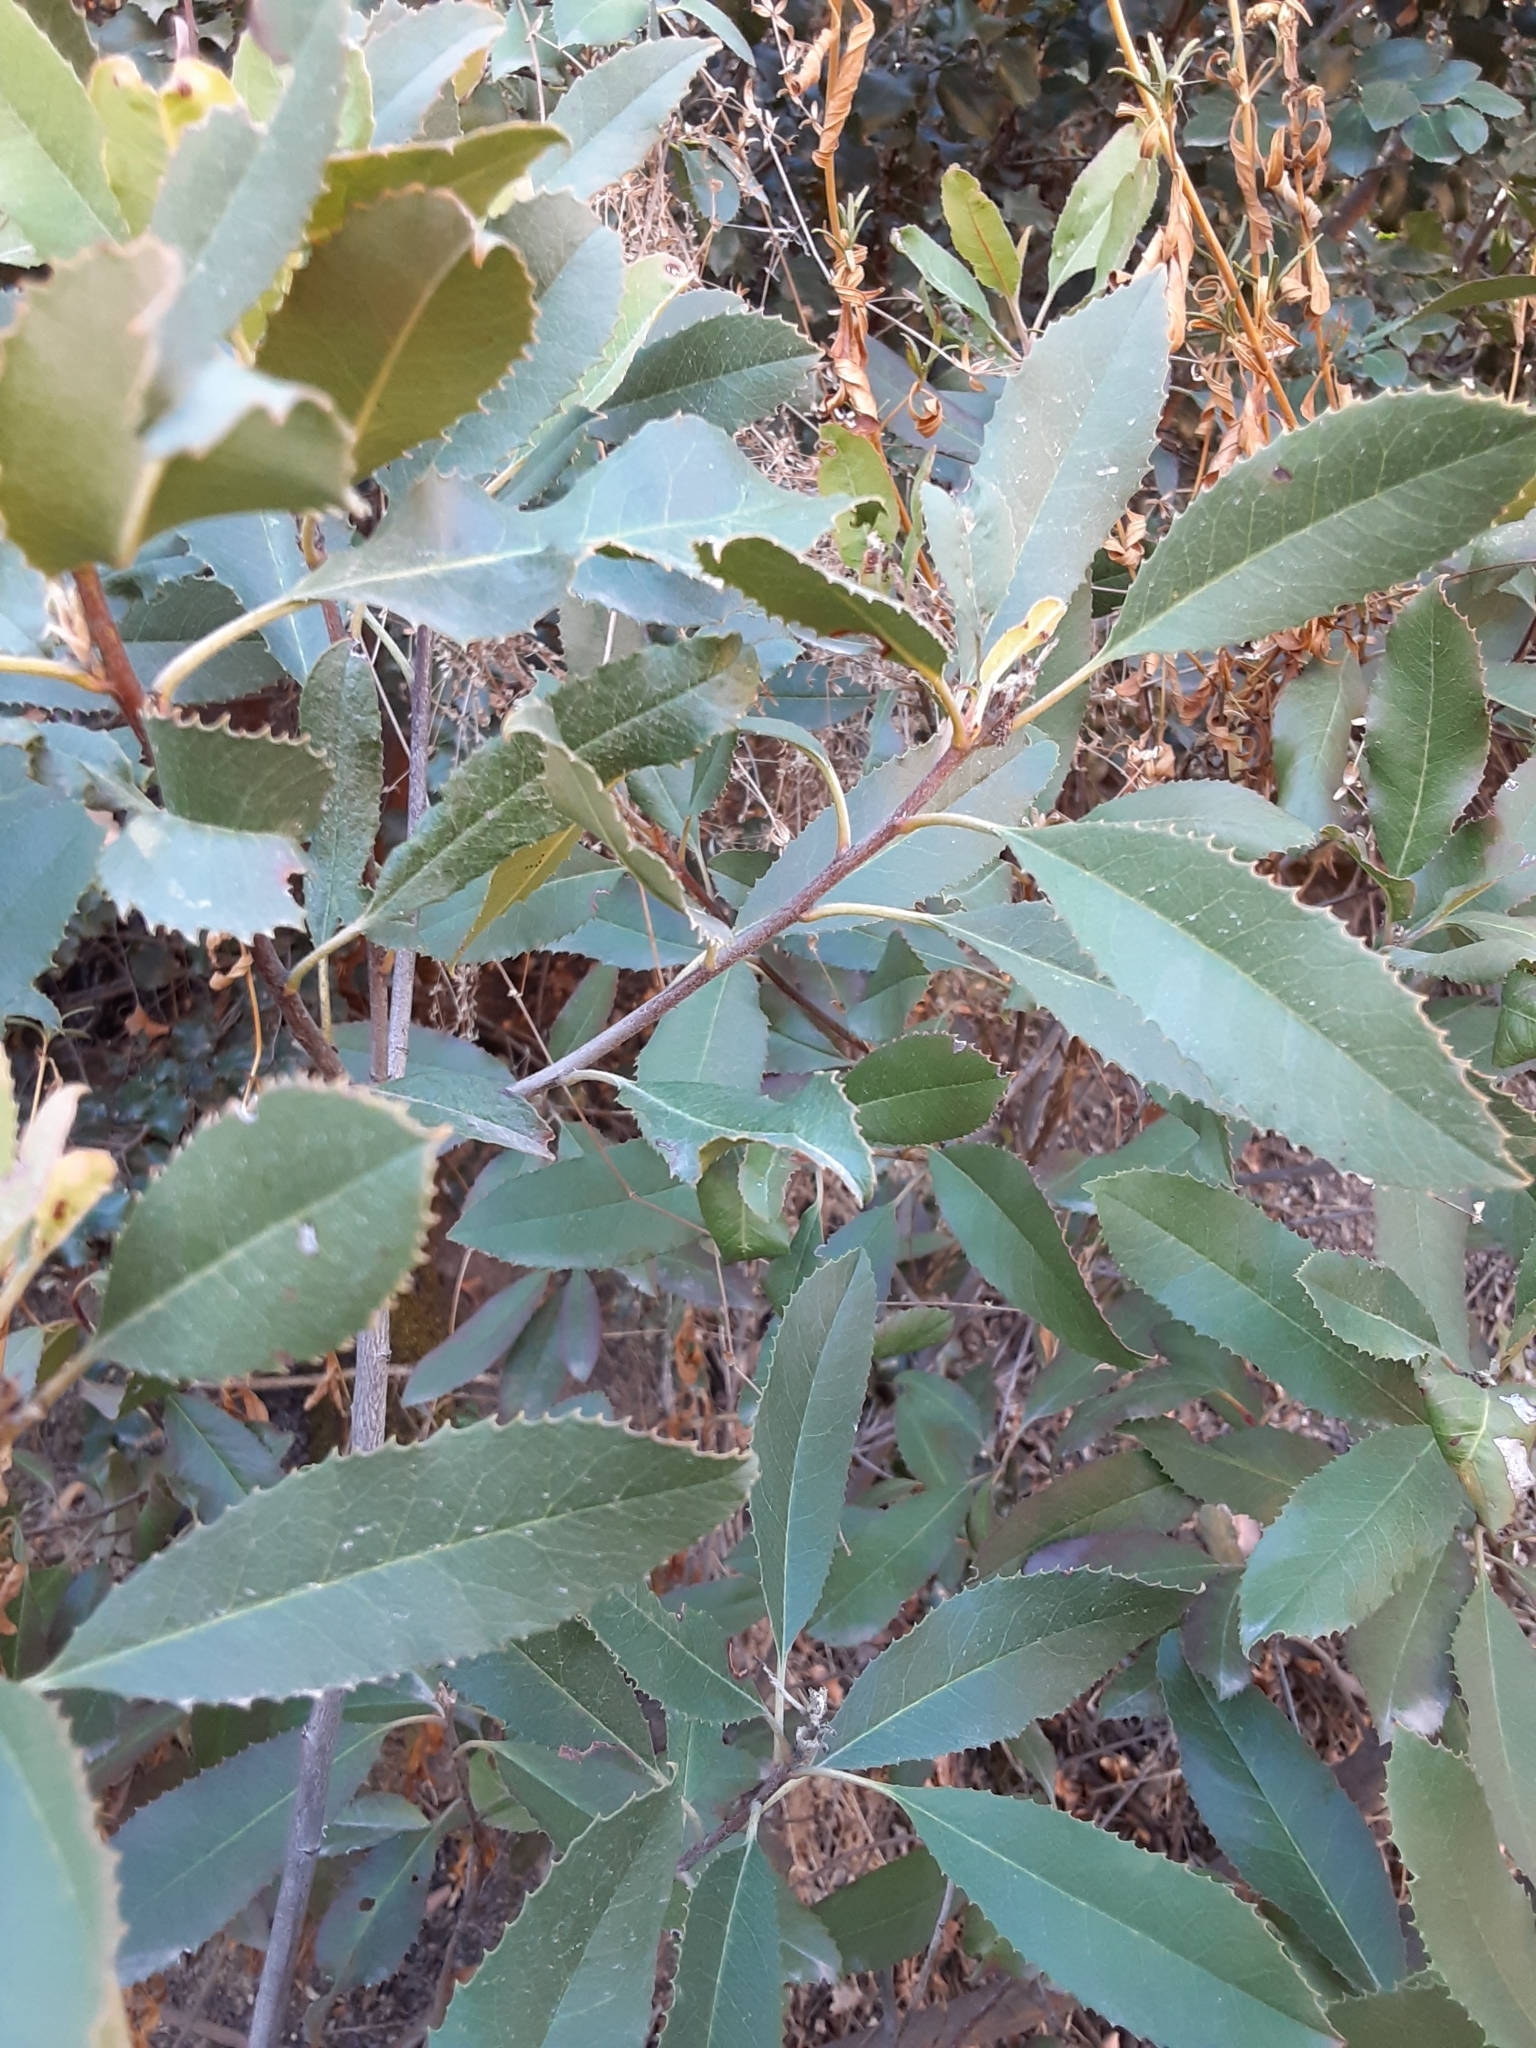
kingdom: Plantae
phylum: Tracheophyta
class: Magnoliopsida
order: Rosales
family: Rosaceae
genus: Heteromeles
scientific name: Heteromeles arbutifolia
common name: California-holly
